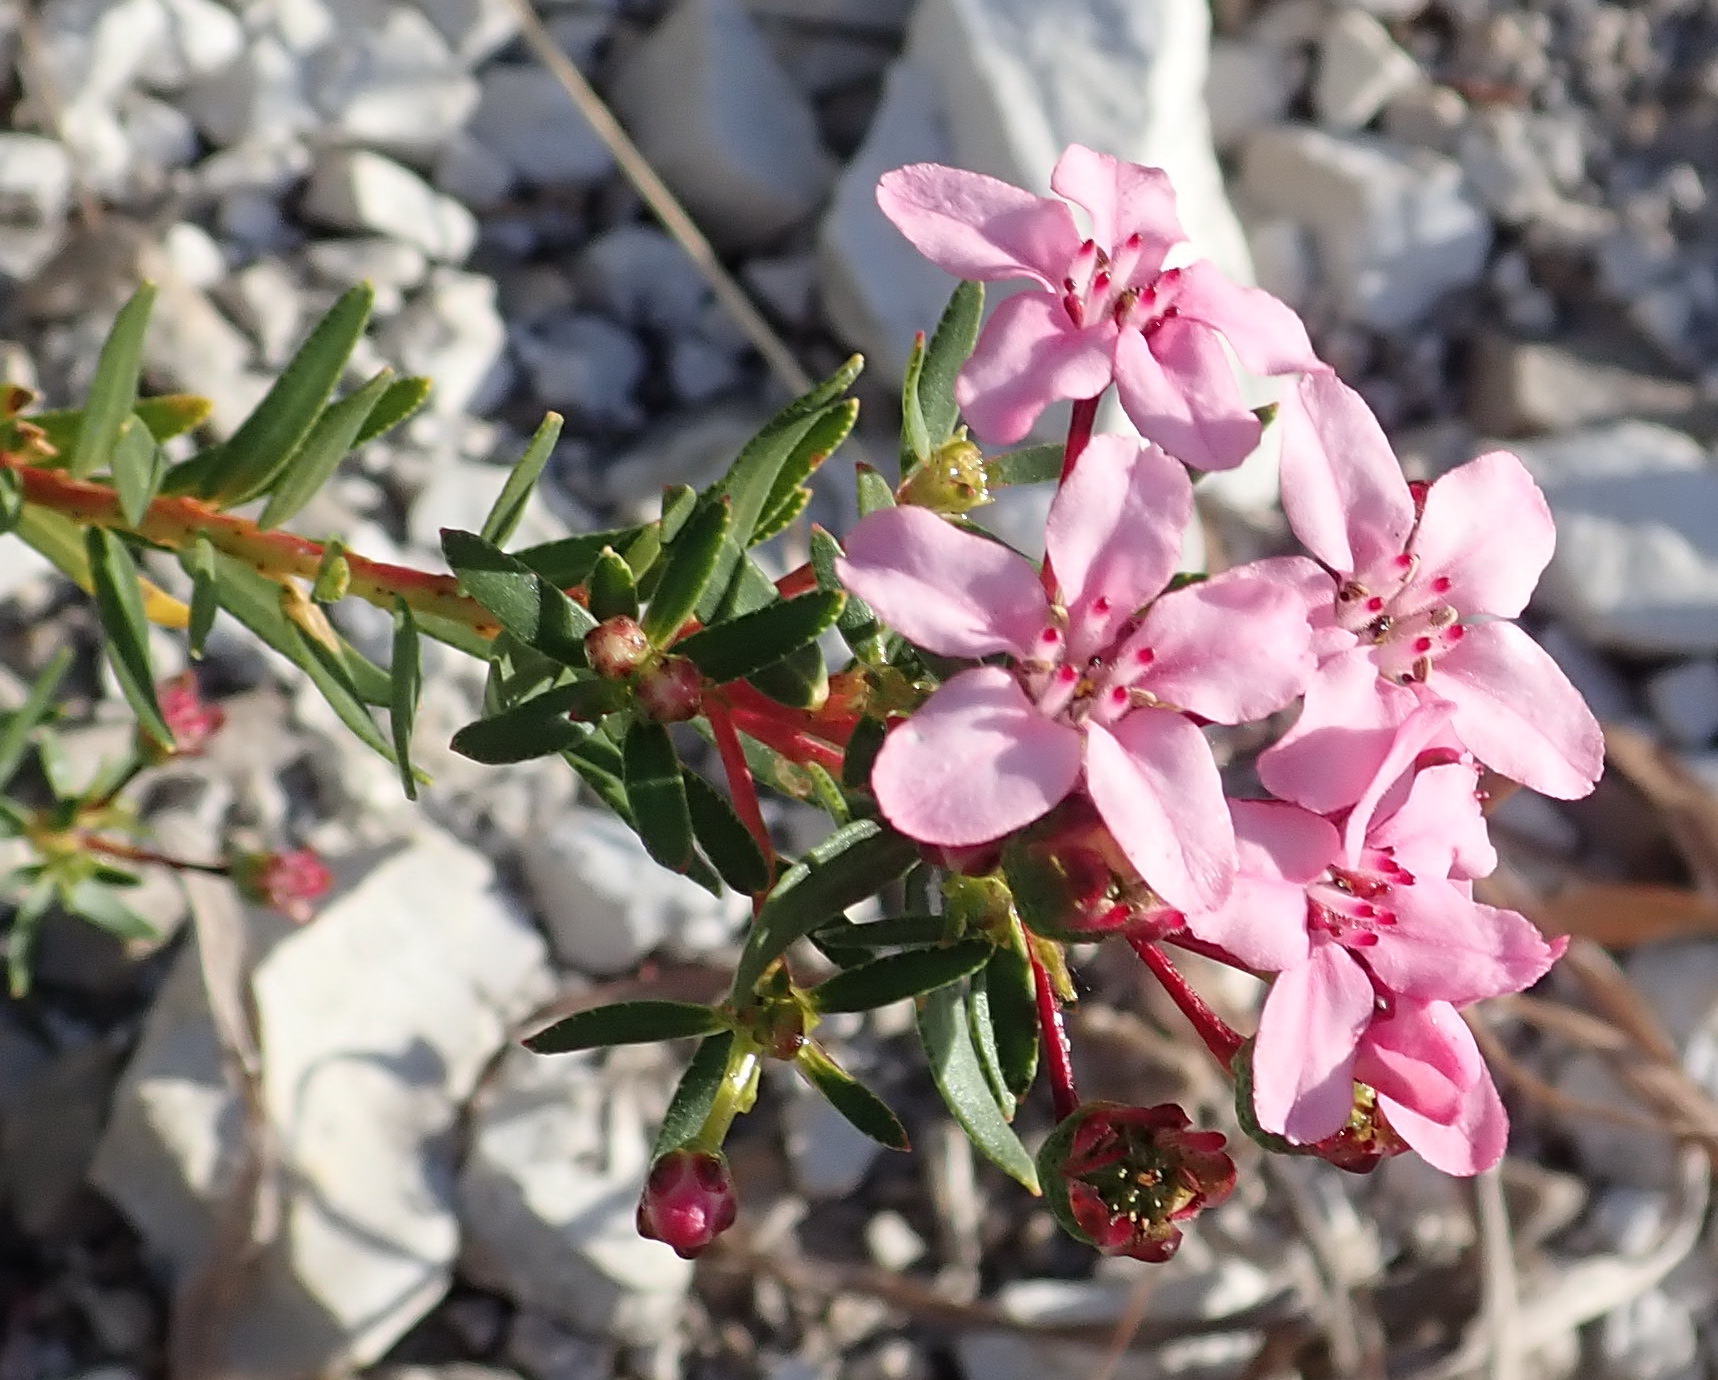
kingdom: Plantae
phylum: Tracheophyta
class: Magnoliopsida
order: Sapindales
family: Rutaceae
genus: Adenandra
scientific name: Adenandra fragrans
